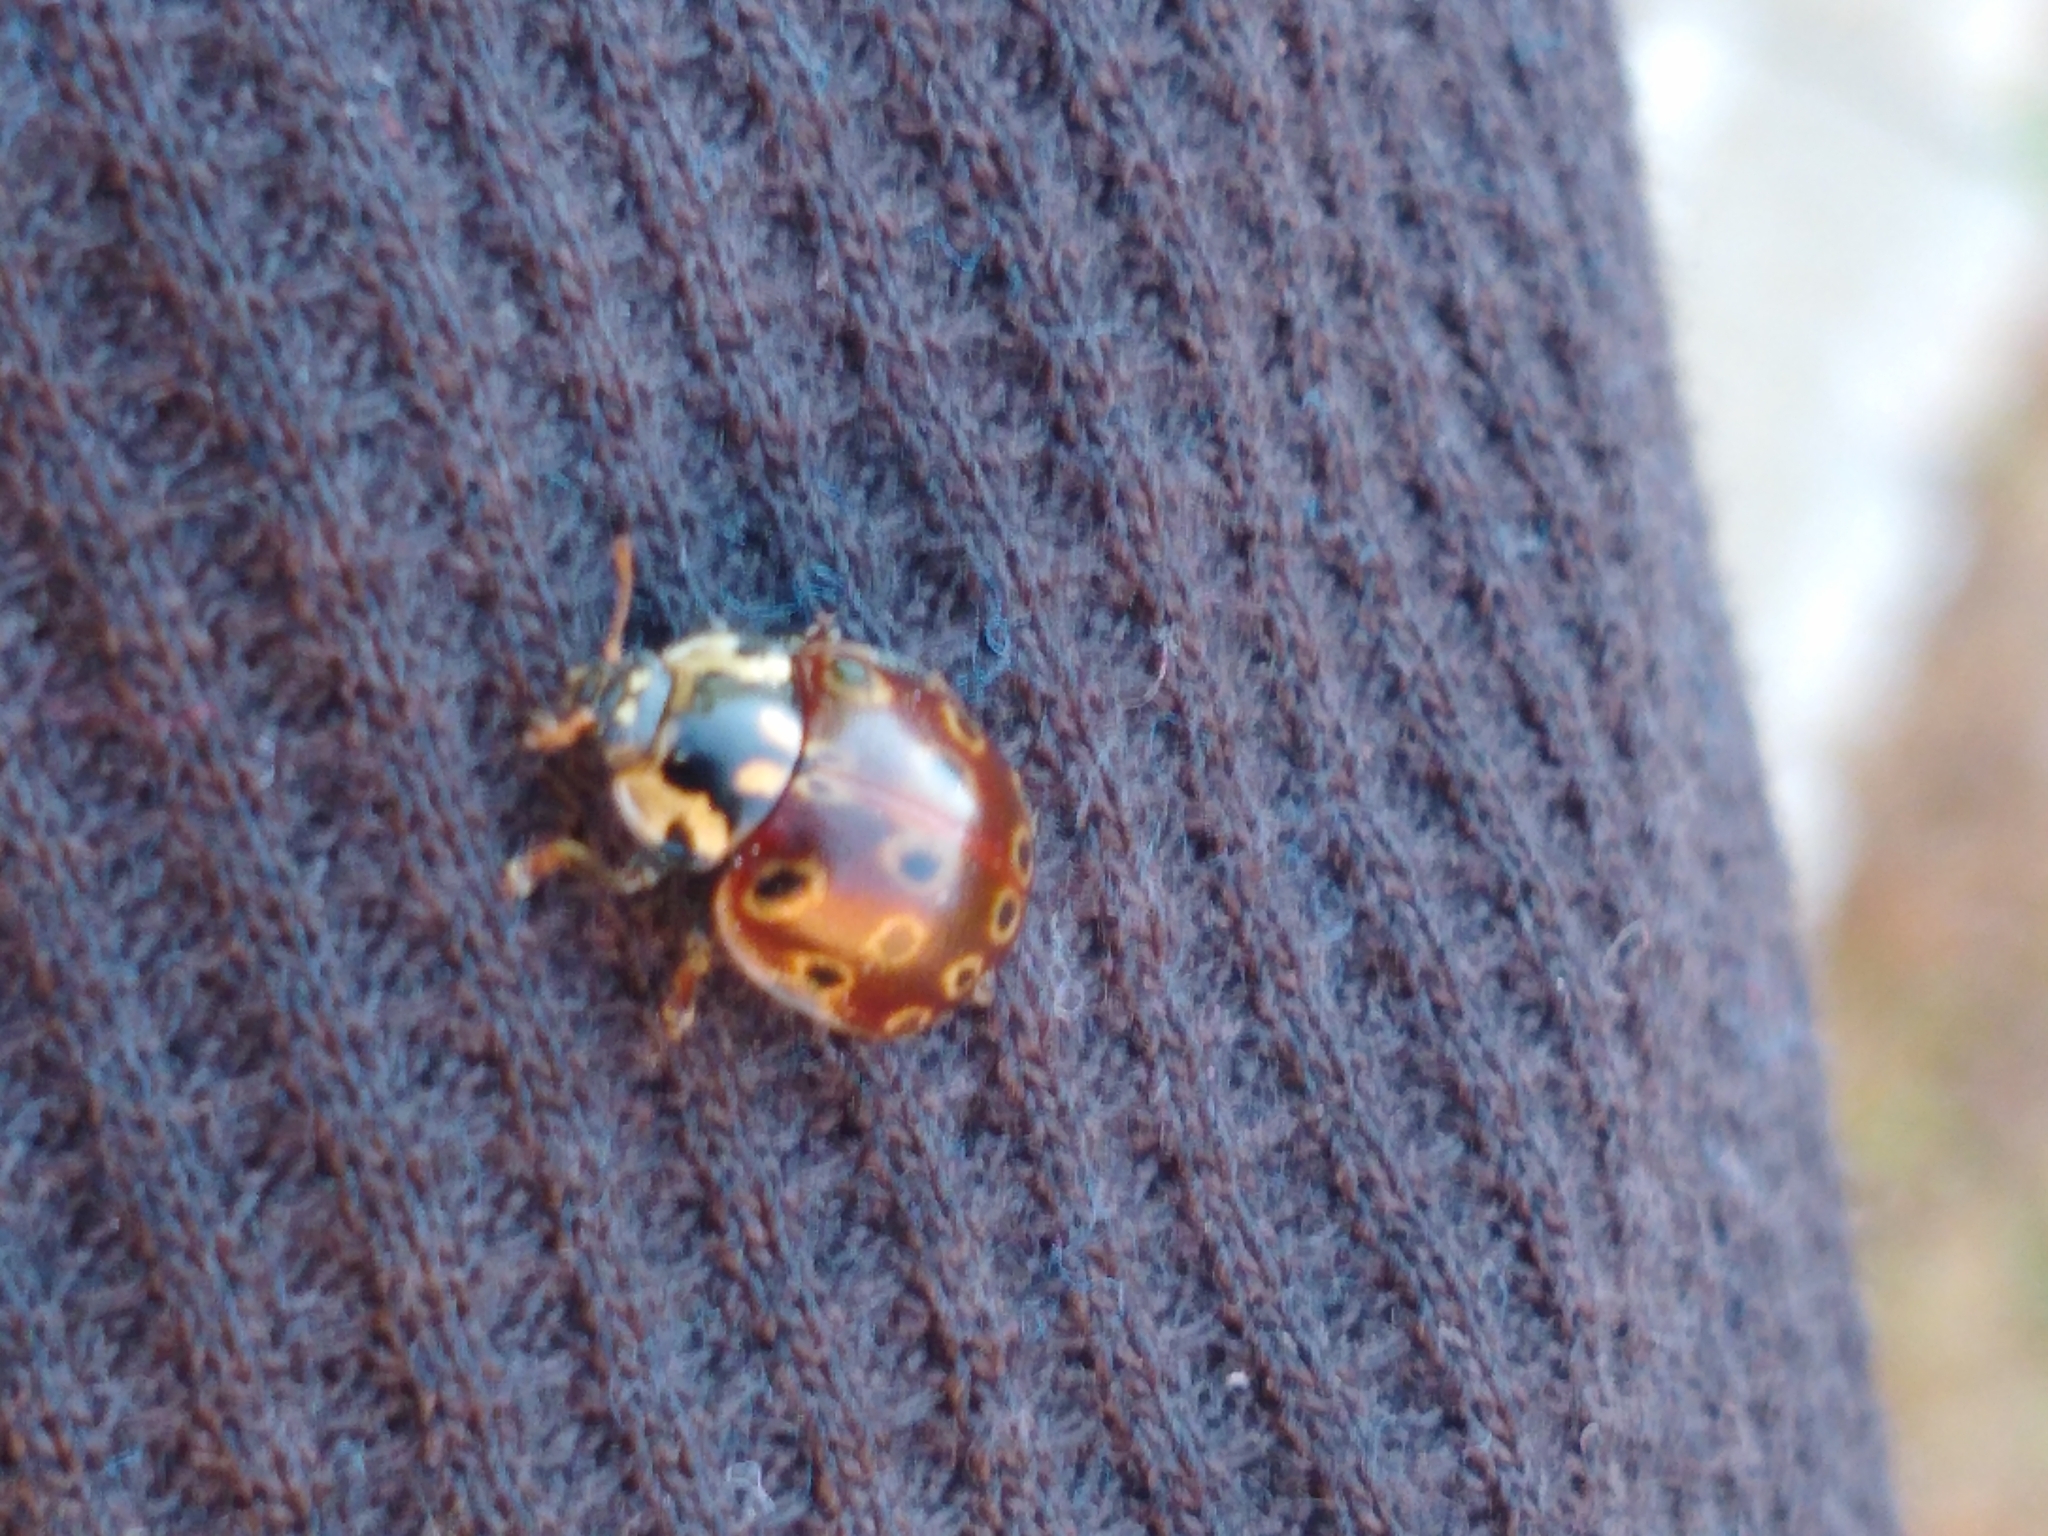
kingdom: Animalia
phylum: Arthropoda
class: Insecta
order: Coleoptera
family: Coccinellidae
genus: Anatis
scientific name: Anatis mali
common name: Eye-spotted lady beetle
